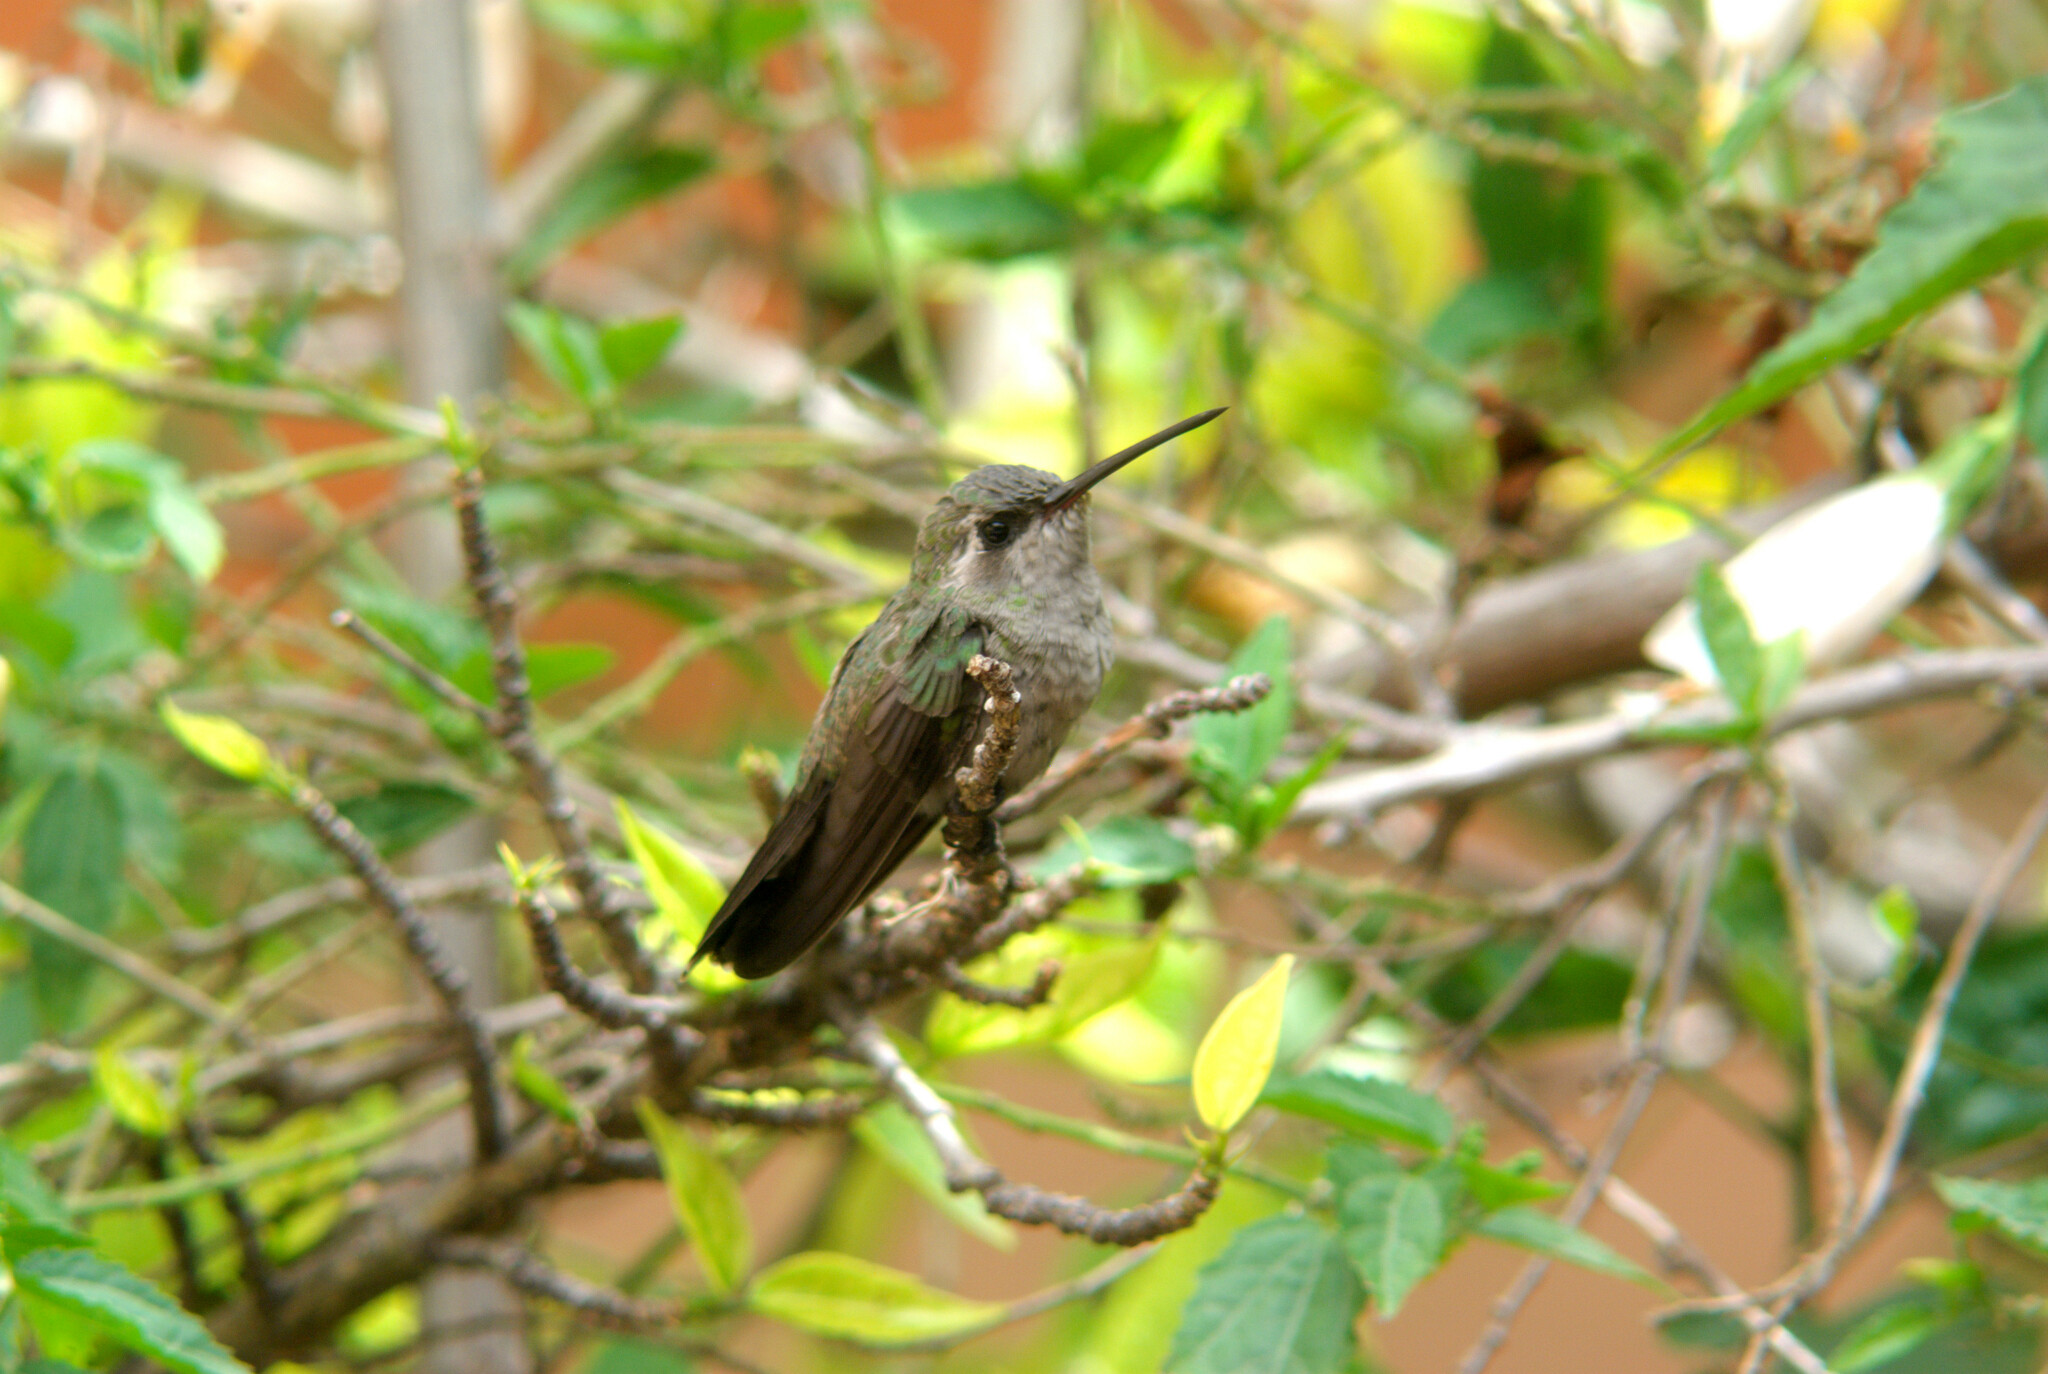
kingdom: Animalia
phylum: Chordata
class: Aves
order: Apodiformes
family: Trochilidae
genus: Cynanthus
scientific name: Cynanthus latirostris
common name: Broad-billed hummingbird
